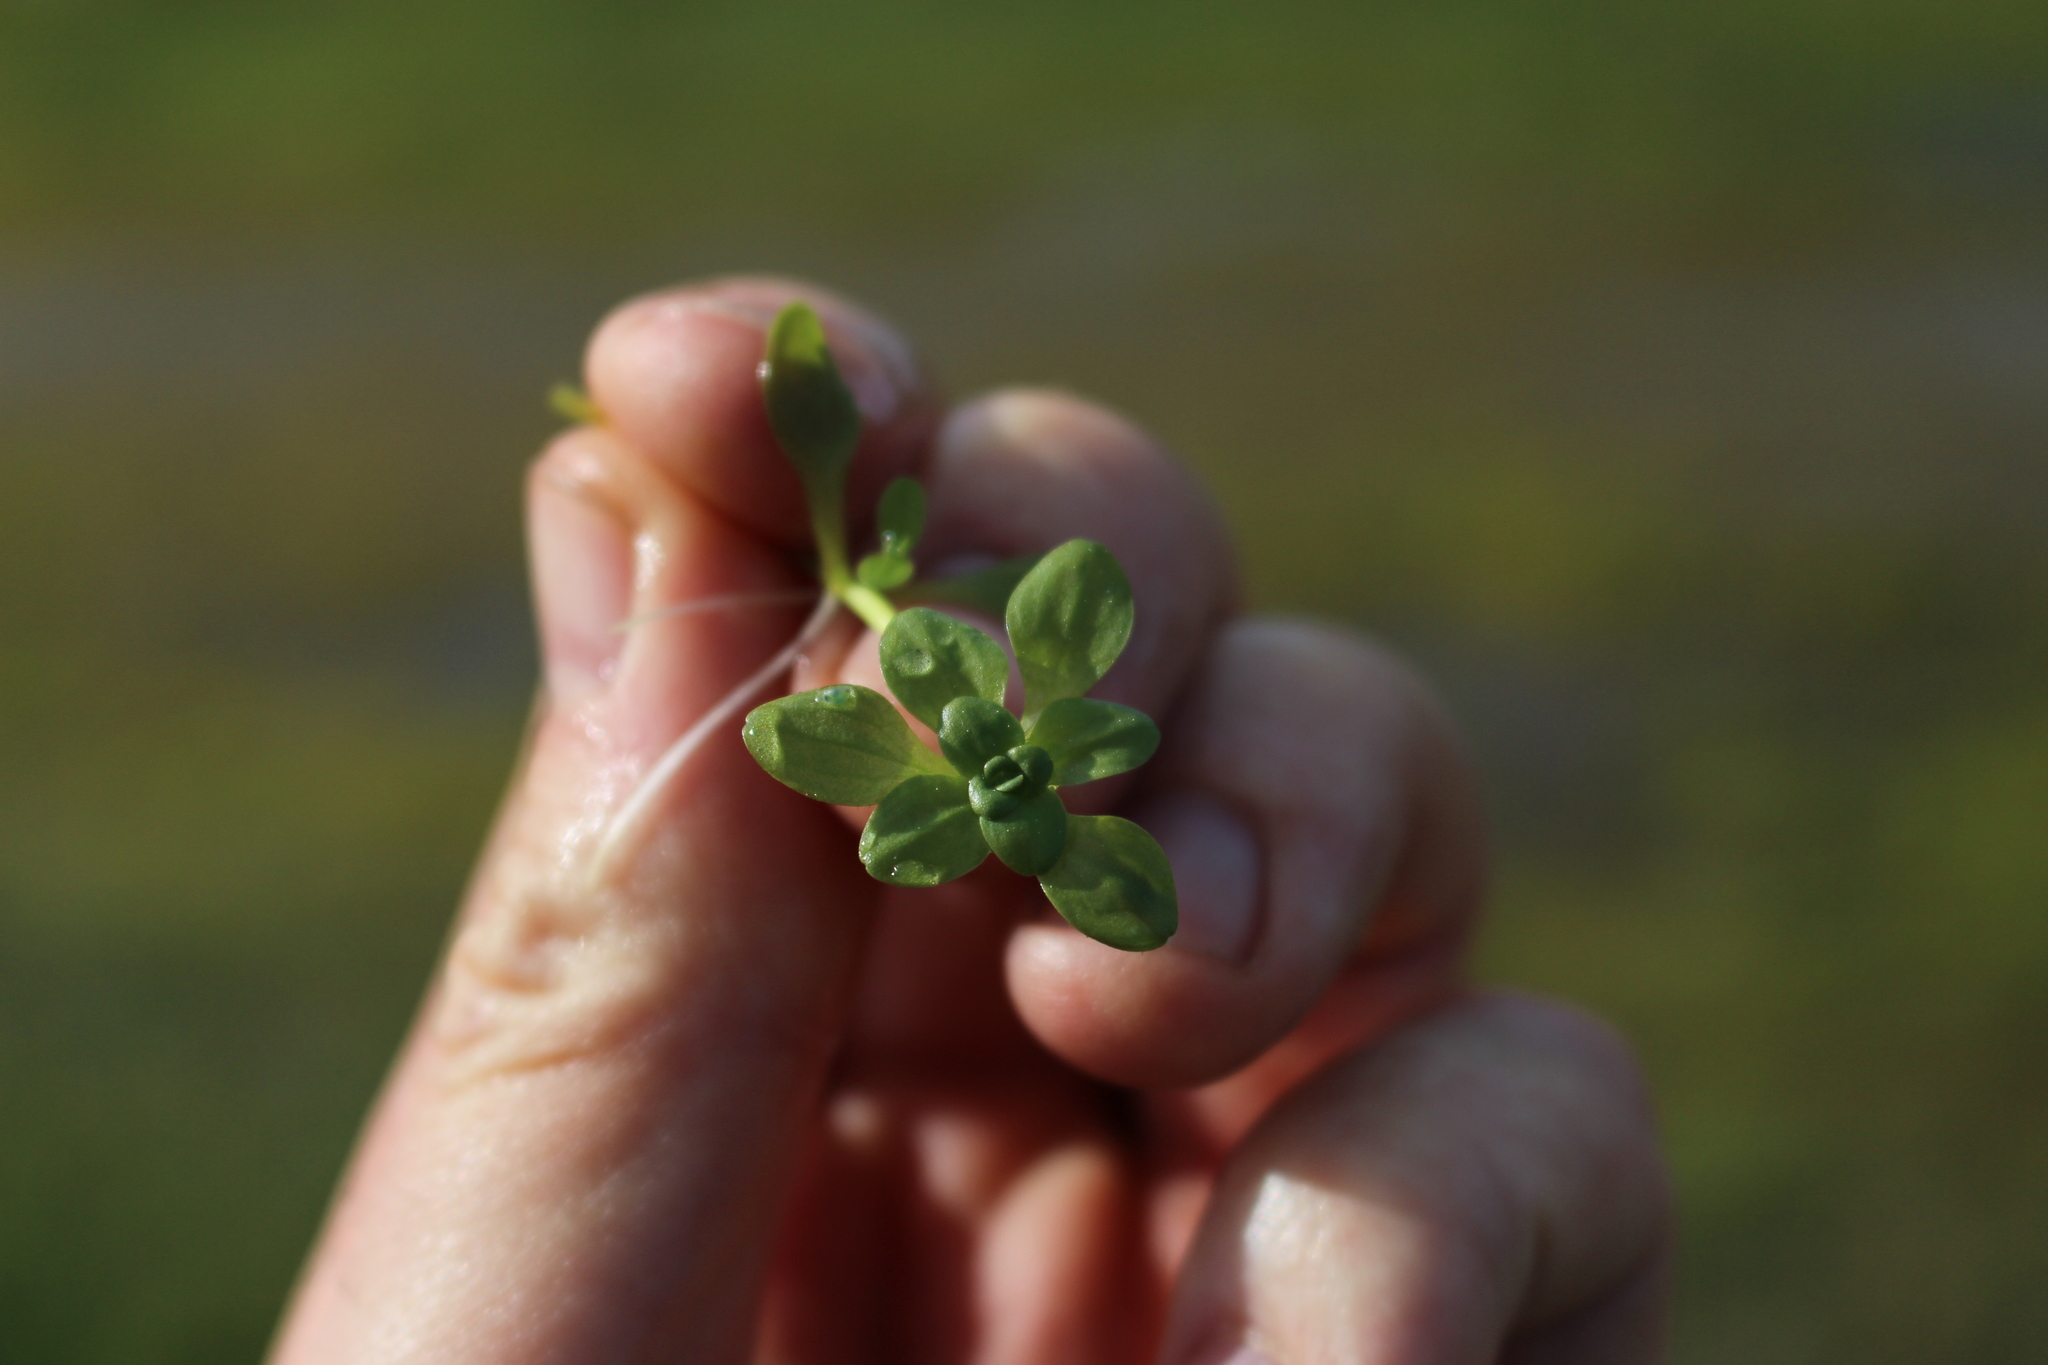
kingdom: Plantae
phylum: Tracheophyta
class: Magnoliopsida
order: Lamiales
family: Plantaginaceae
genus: Callitriche
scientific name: Callitriche stagnalis
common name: Common water-starwort
